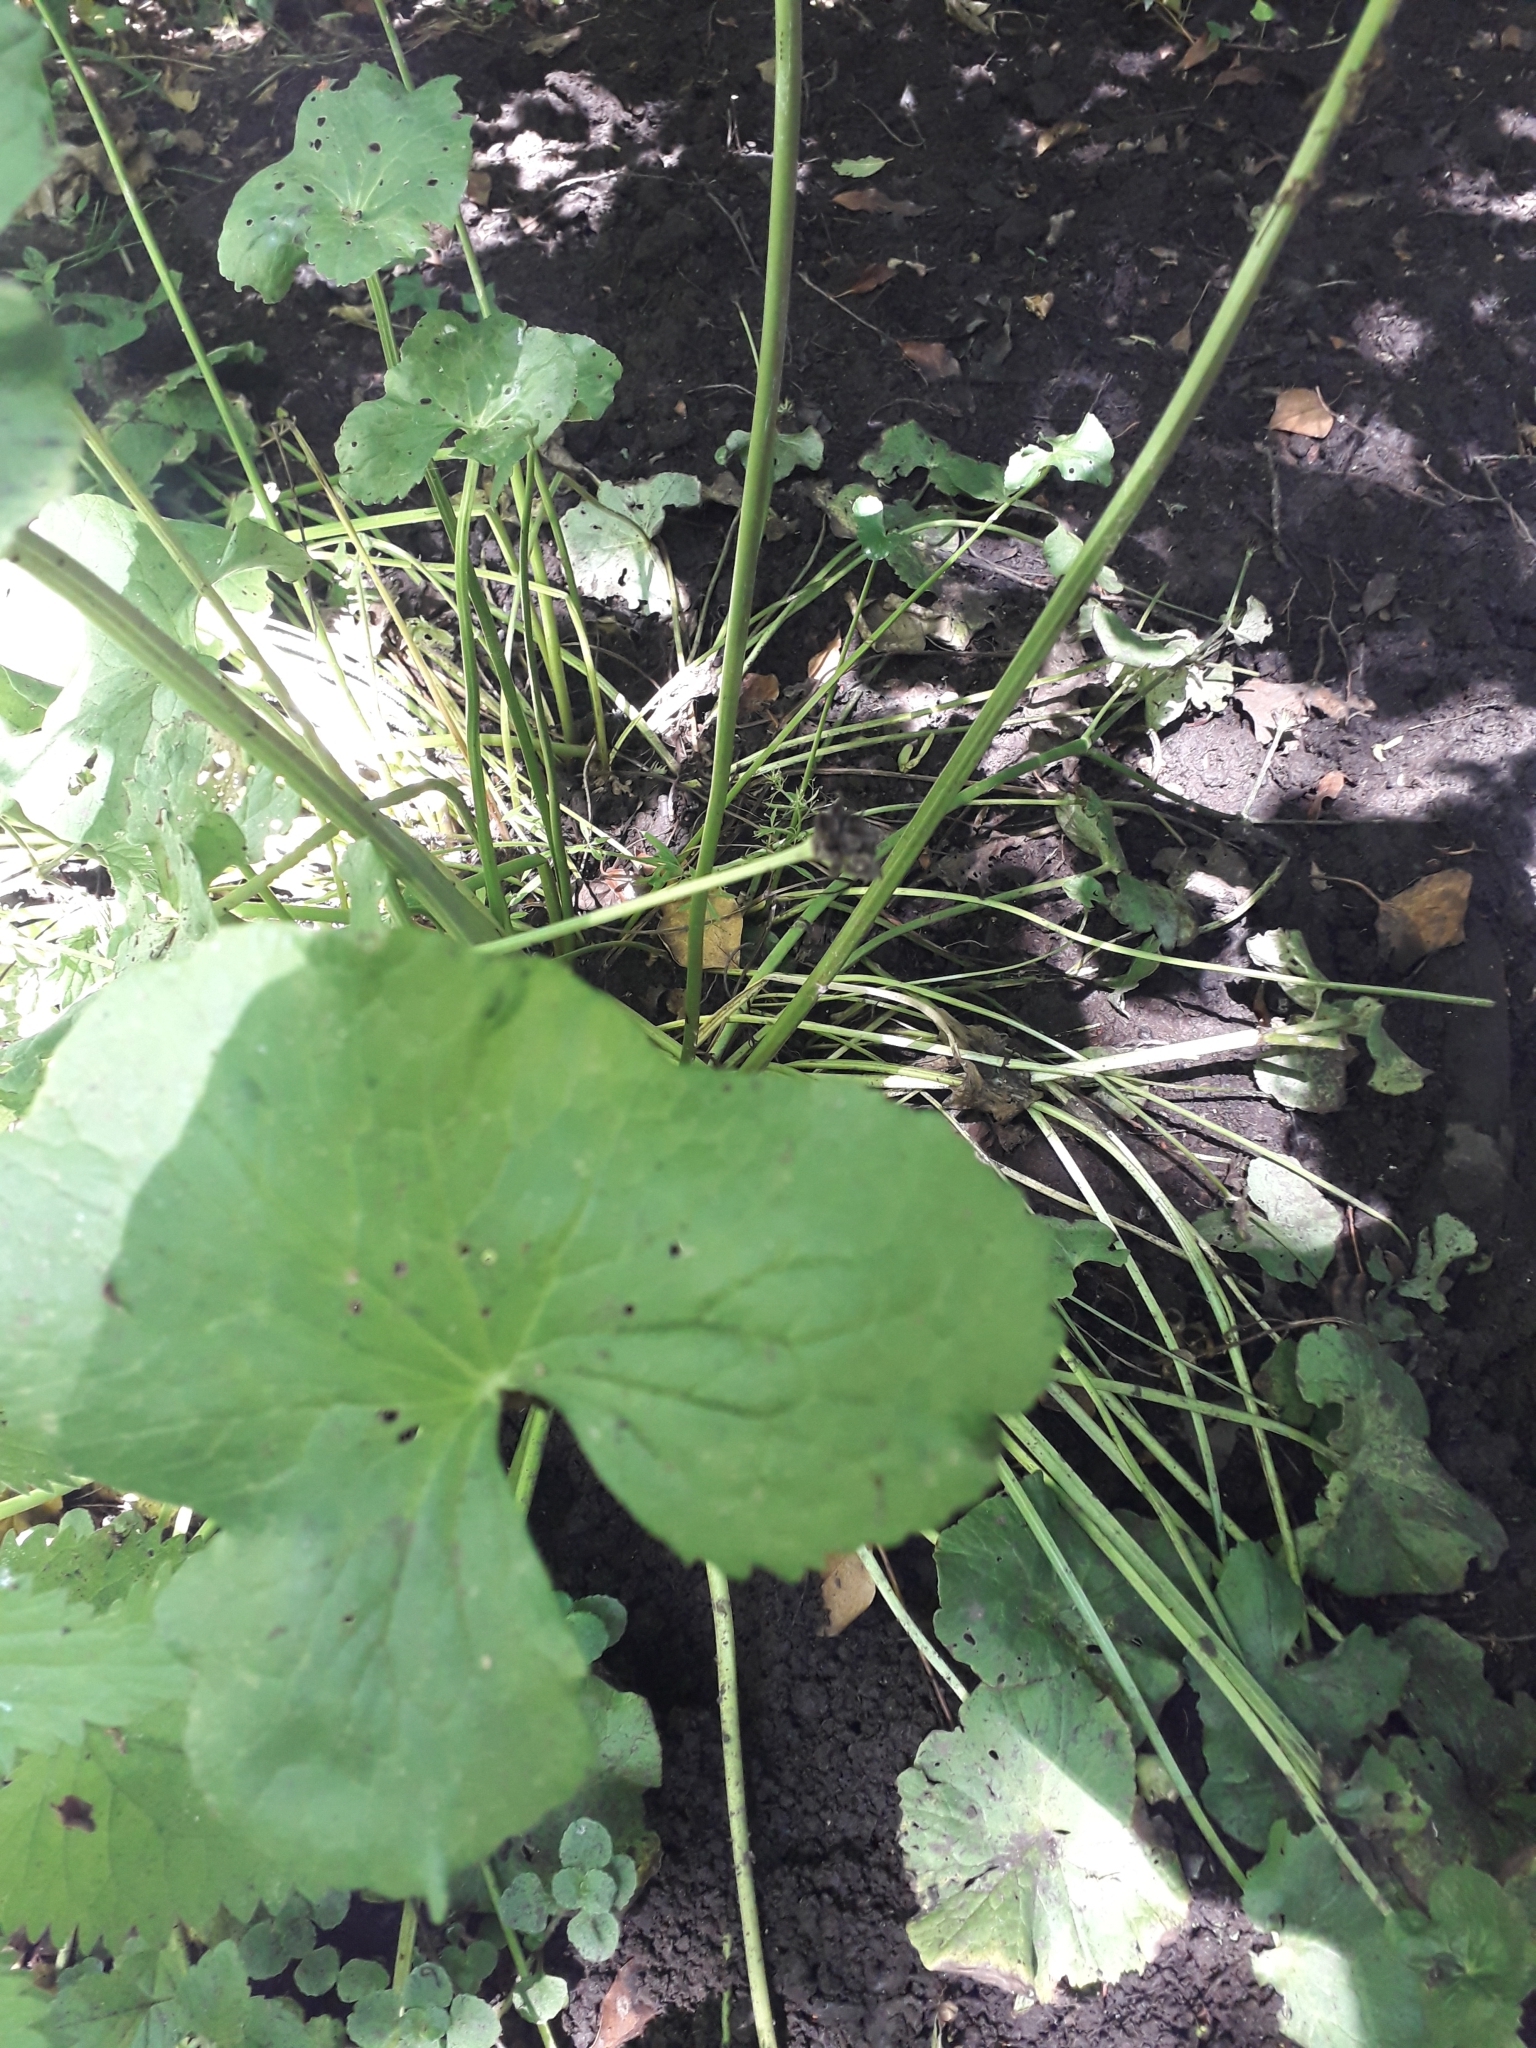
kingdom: Plantae
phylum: Tracheophyta
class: Magnoliopsida
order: Ranunculales
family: Ranunculaceae
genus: Caltha
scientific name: Caltha palustris
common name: Marsh marigold
